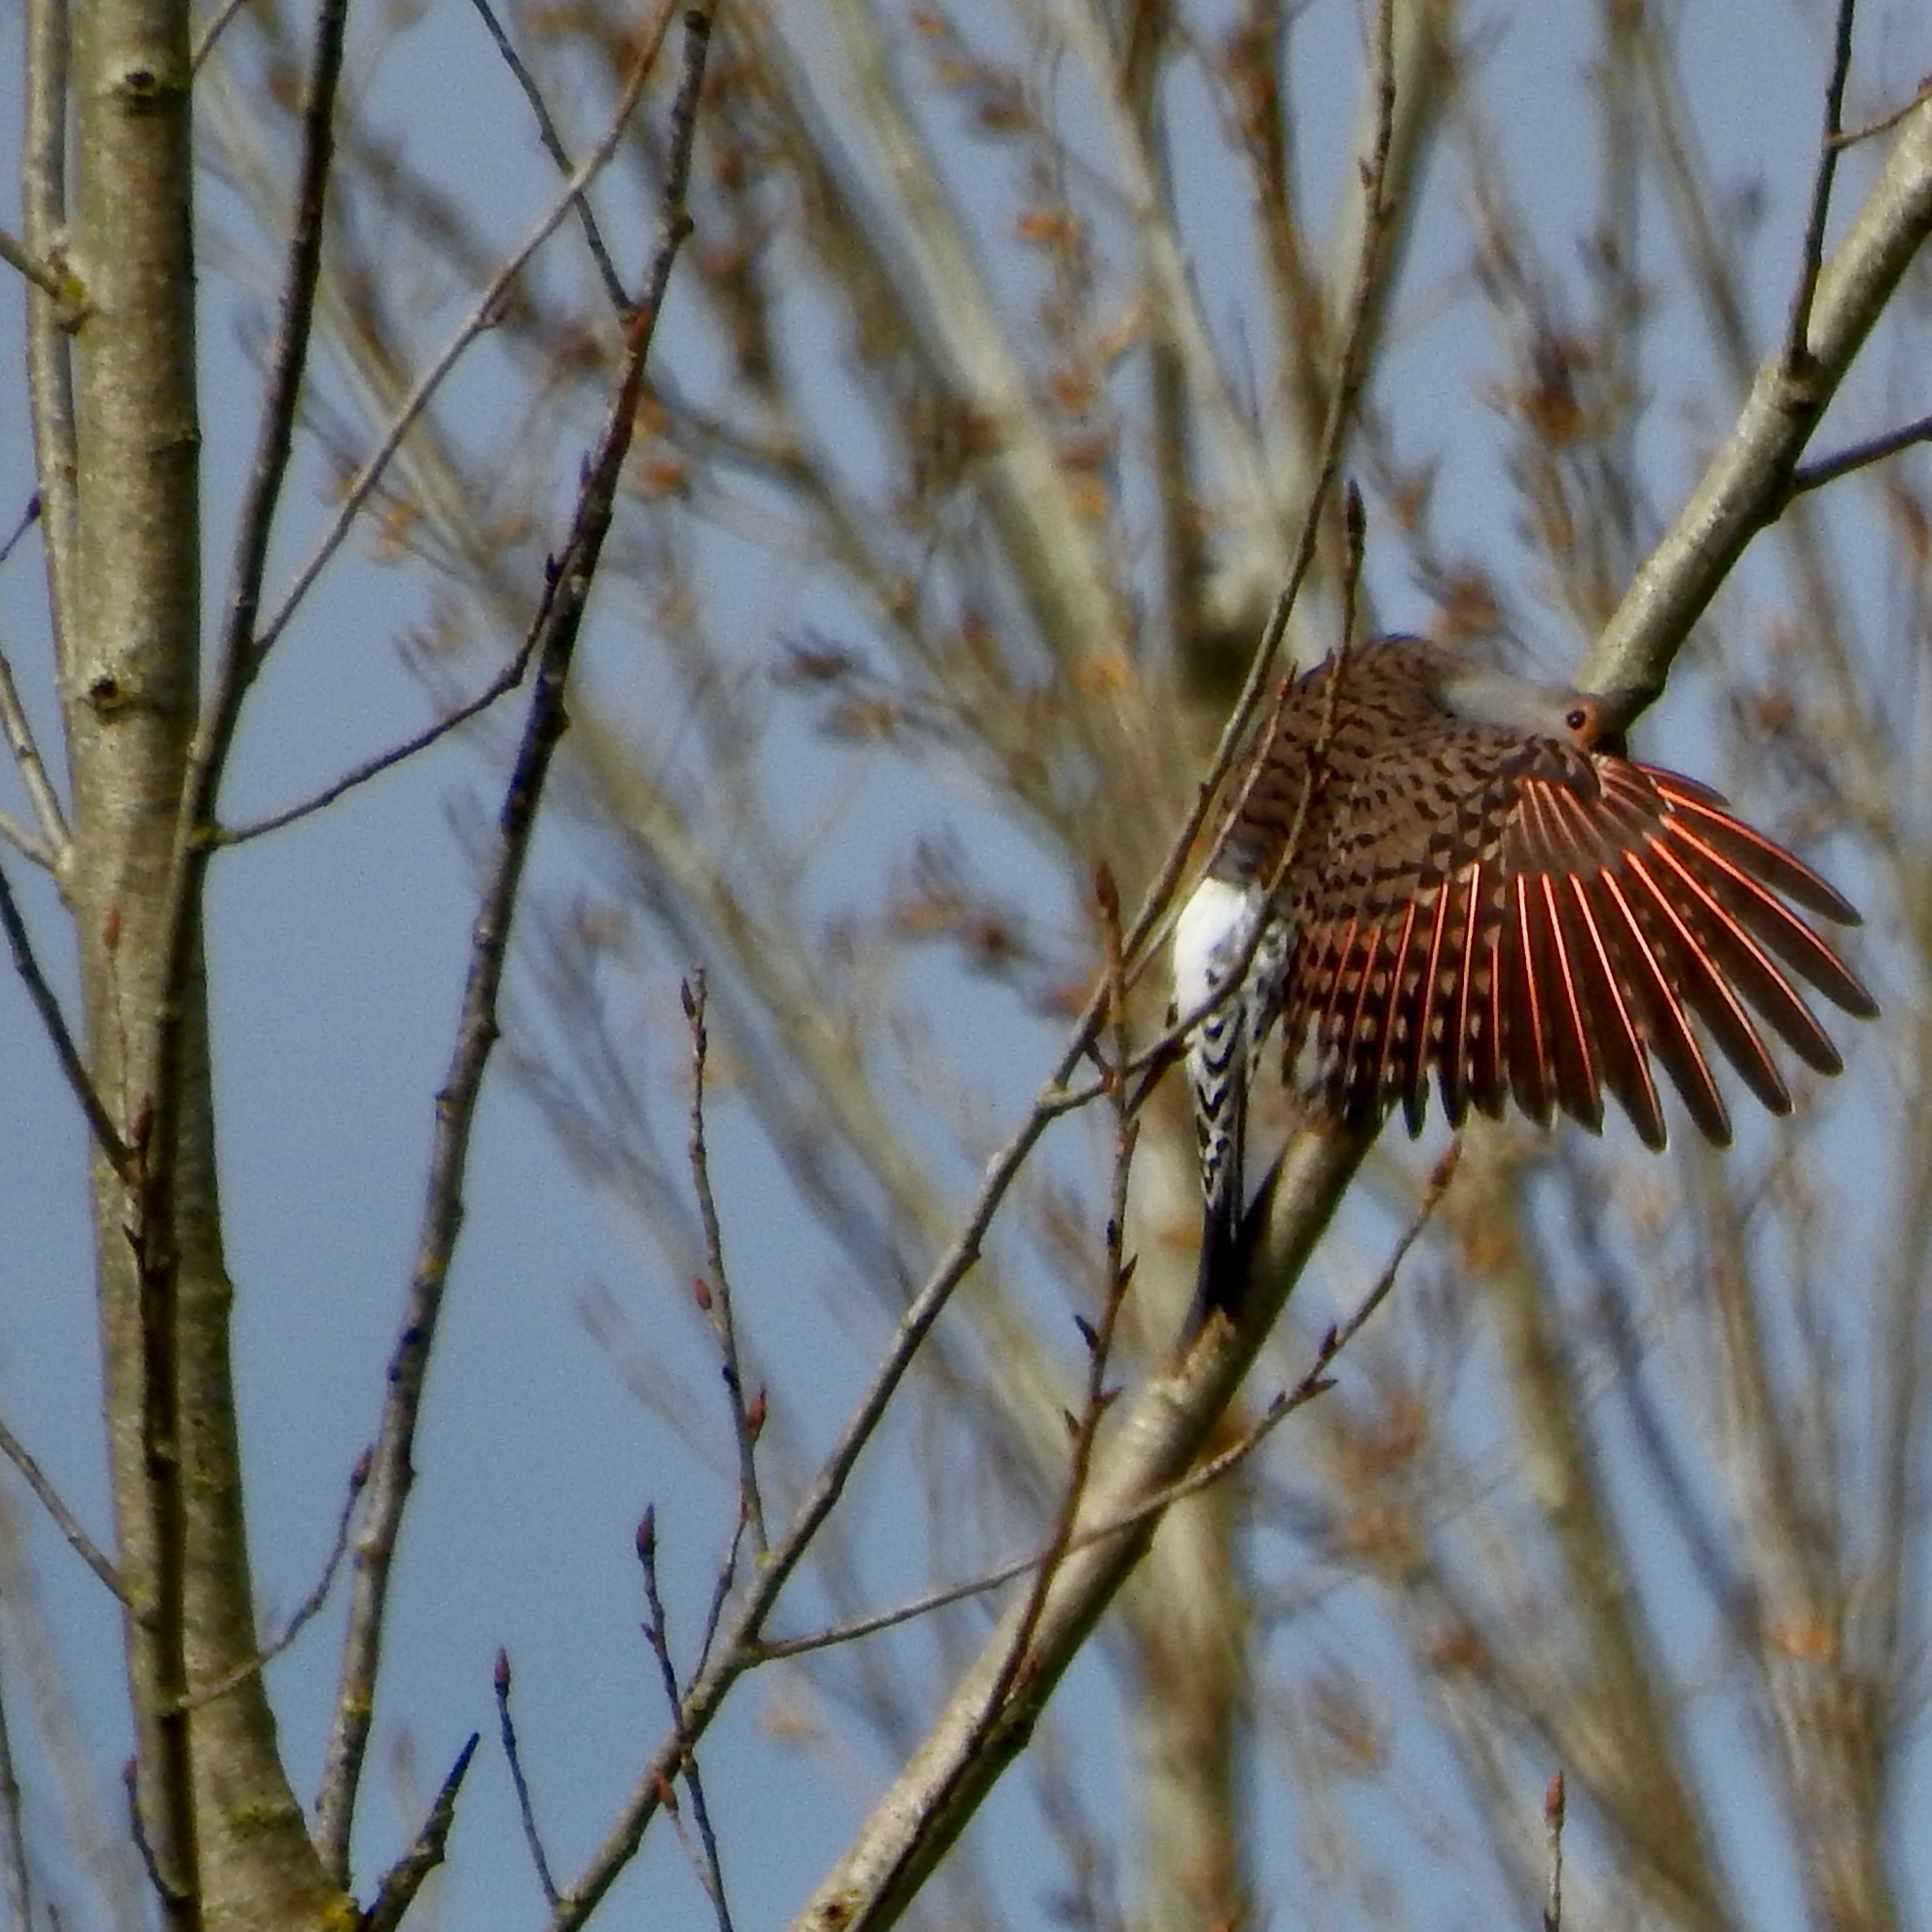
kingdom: Animalia
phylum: Chordata
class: Aves
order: Piciformes
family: Picidae
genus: Colaptes
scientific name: Colaptes auratus
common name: Northern flicker
